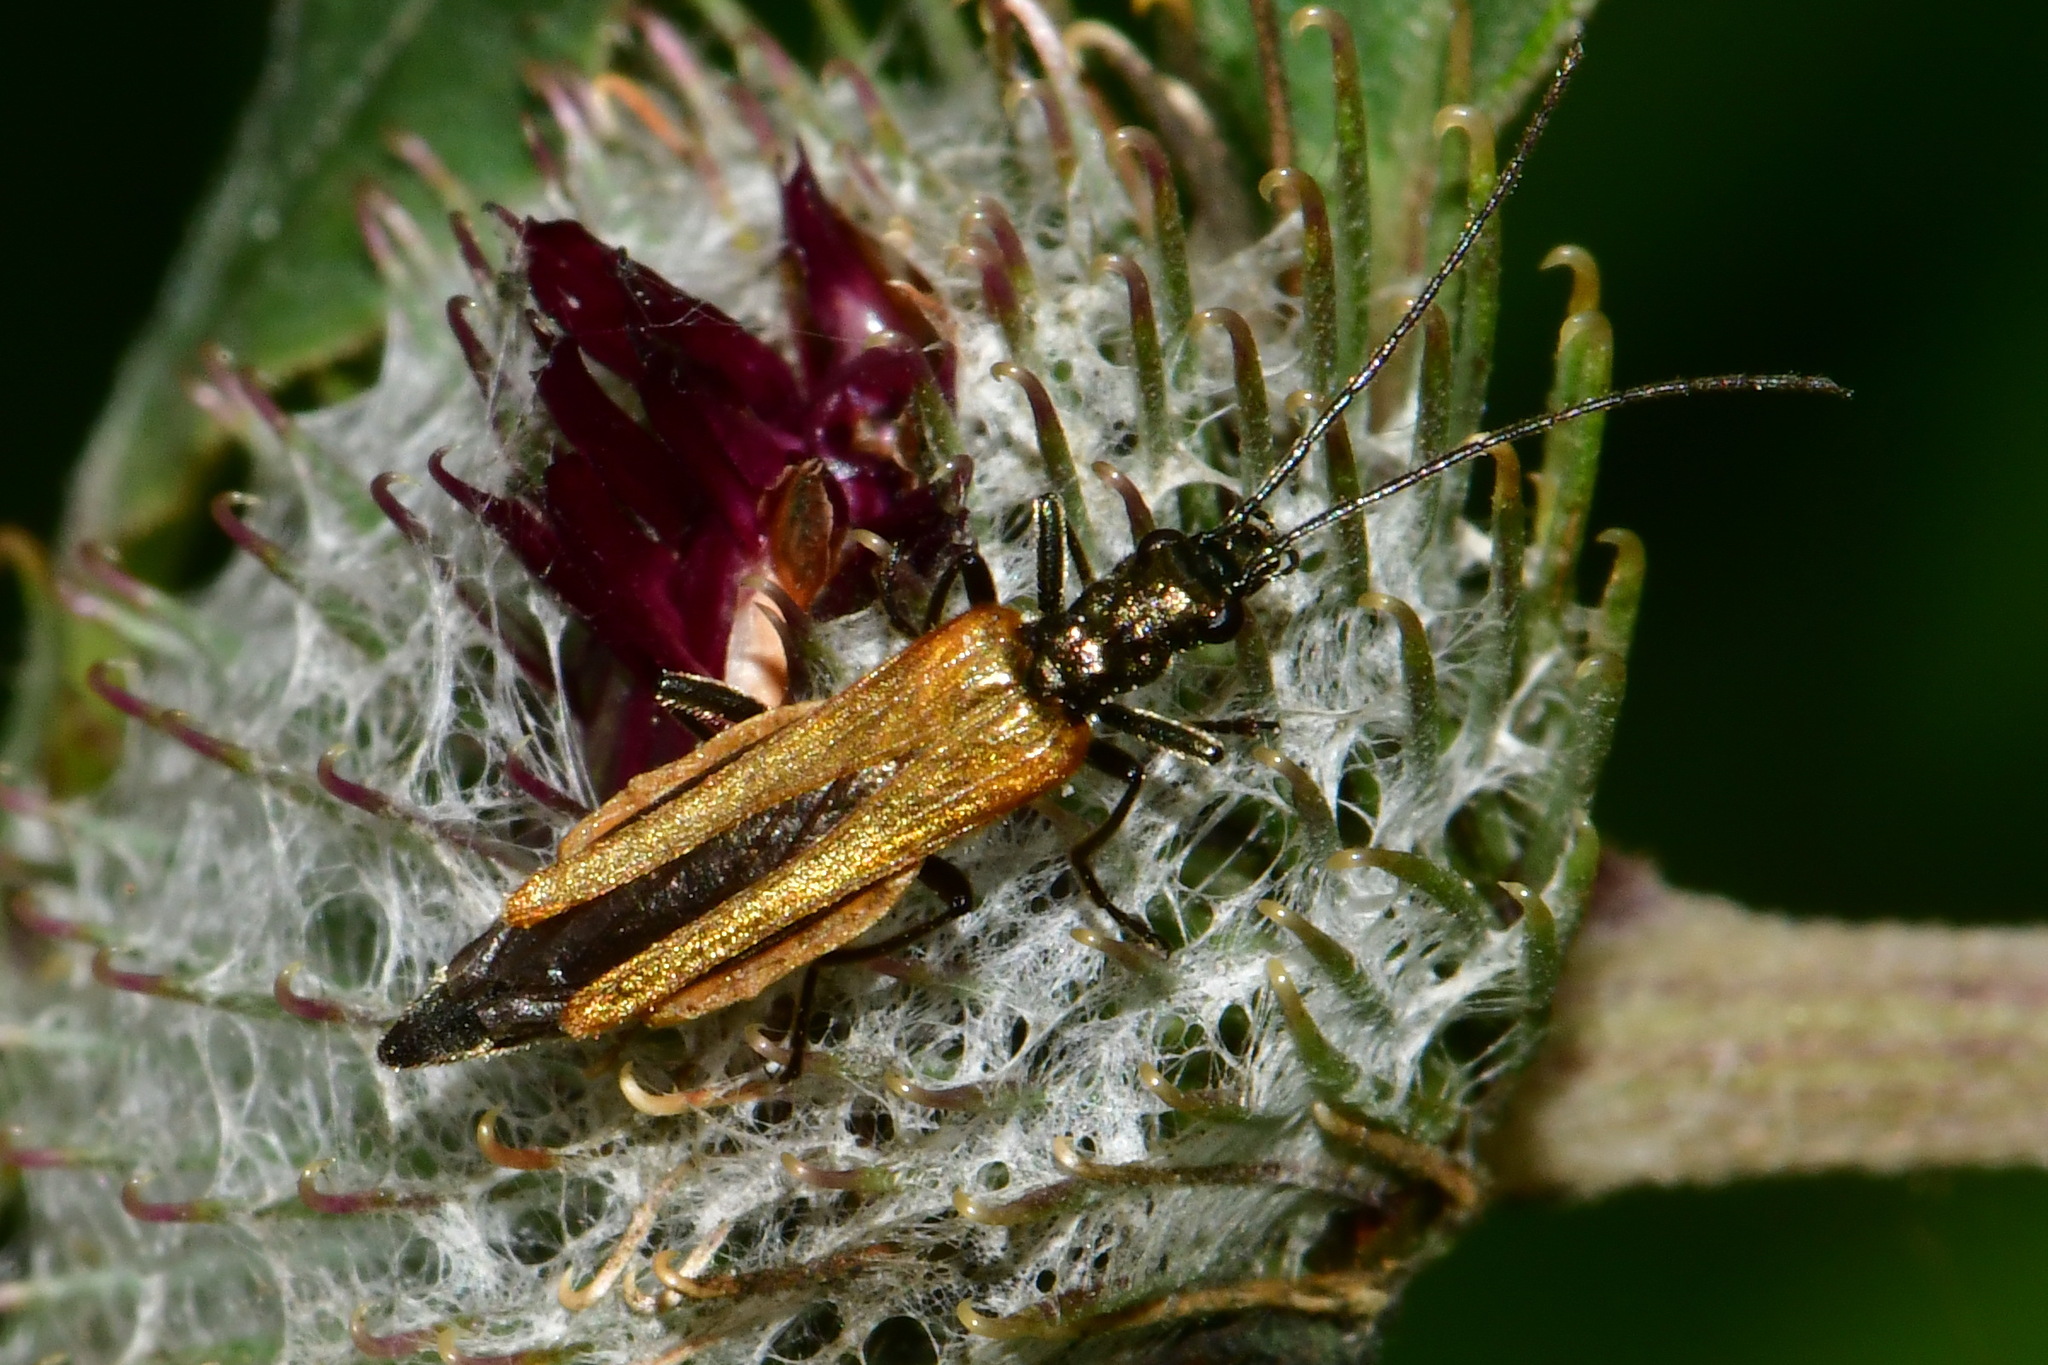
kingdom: Animalia
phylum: Arthropoda
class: Insecta
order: Coleoptera
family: Oedemeridae
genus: Oedemera
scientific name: Oedemera femorata
